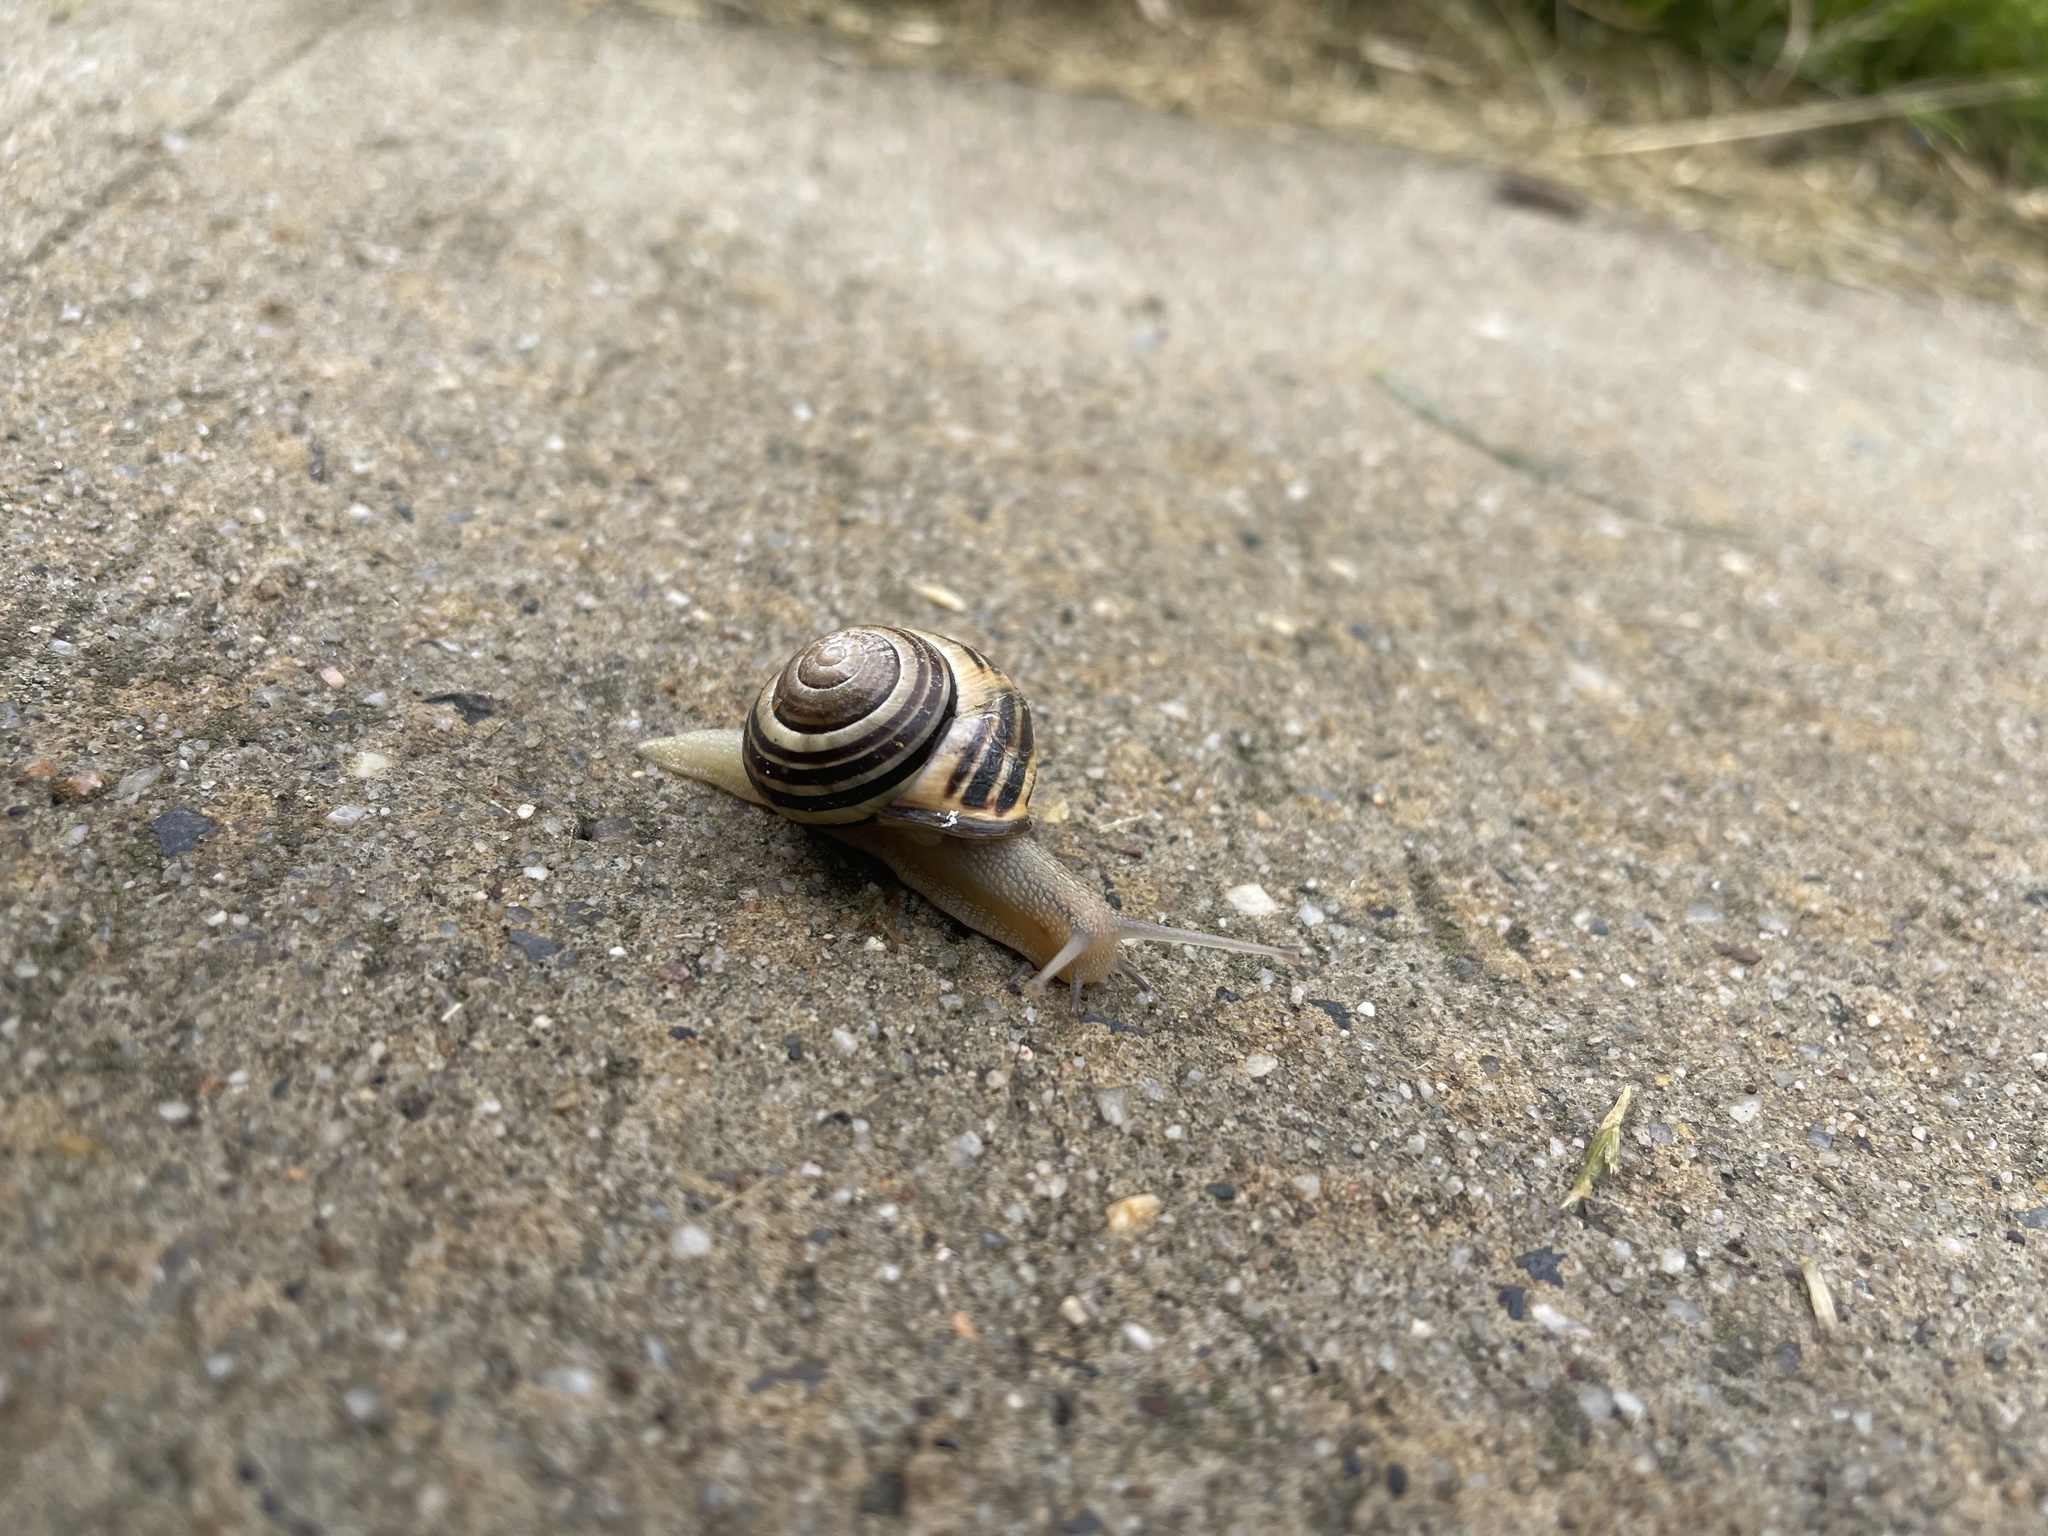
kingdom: Animalia
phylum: Mollusca
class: Gastropoda
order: Stylommatophora
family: Helicidae
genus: Cepaea
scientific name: Cepaea nemoralis
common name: Grovesnail
